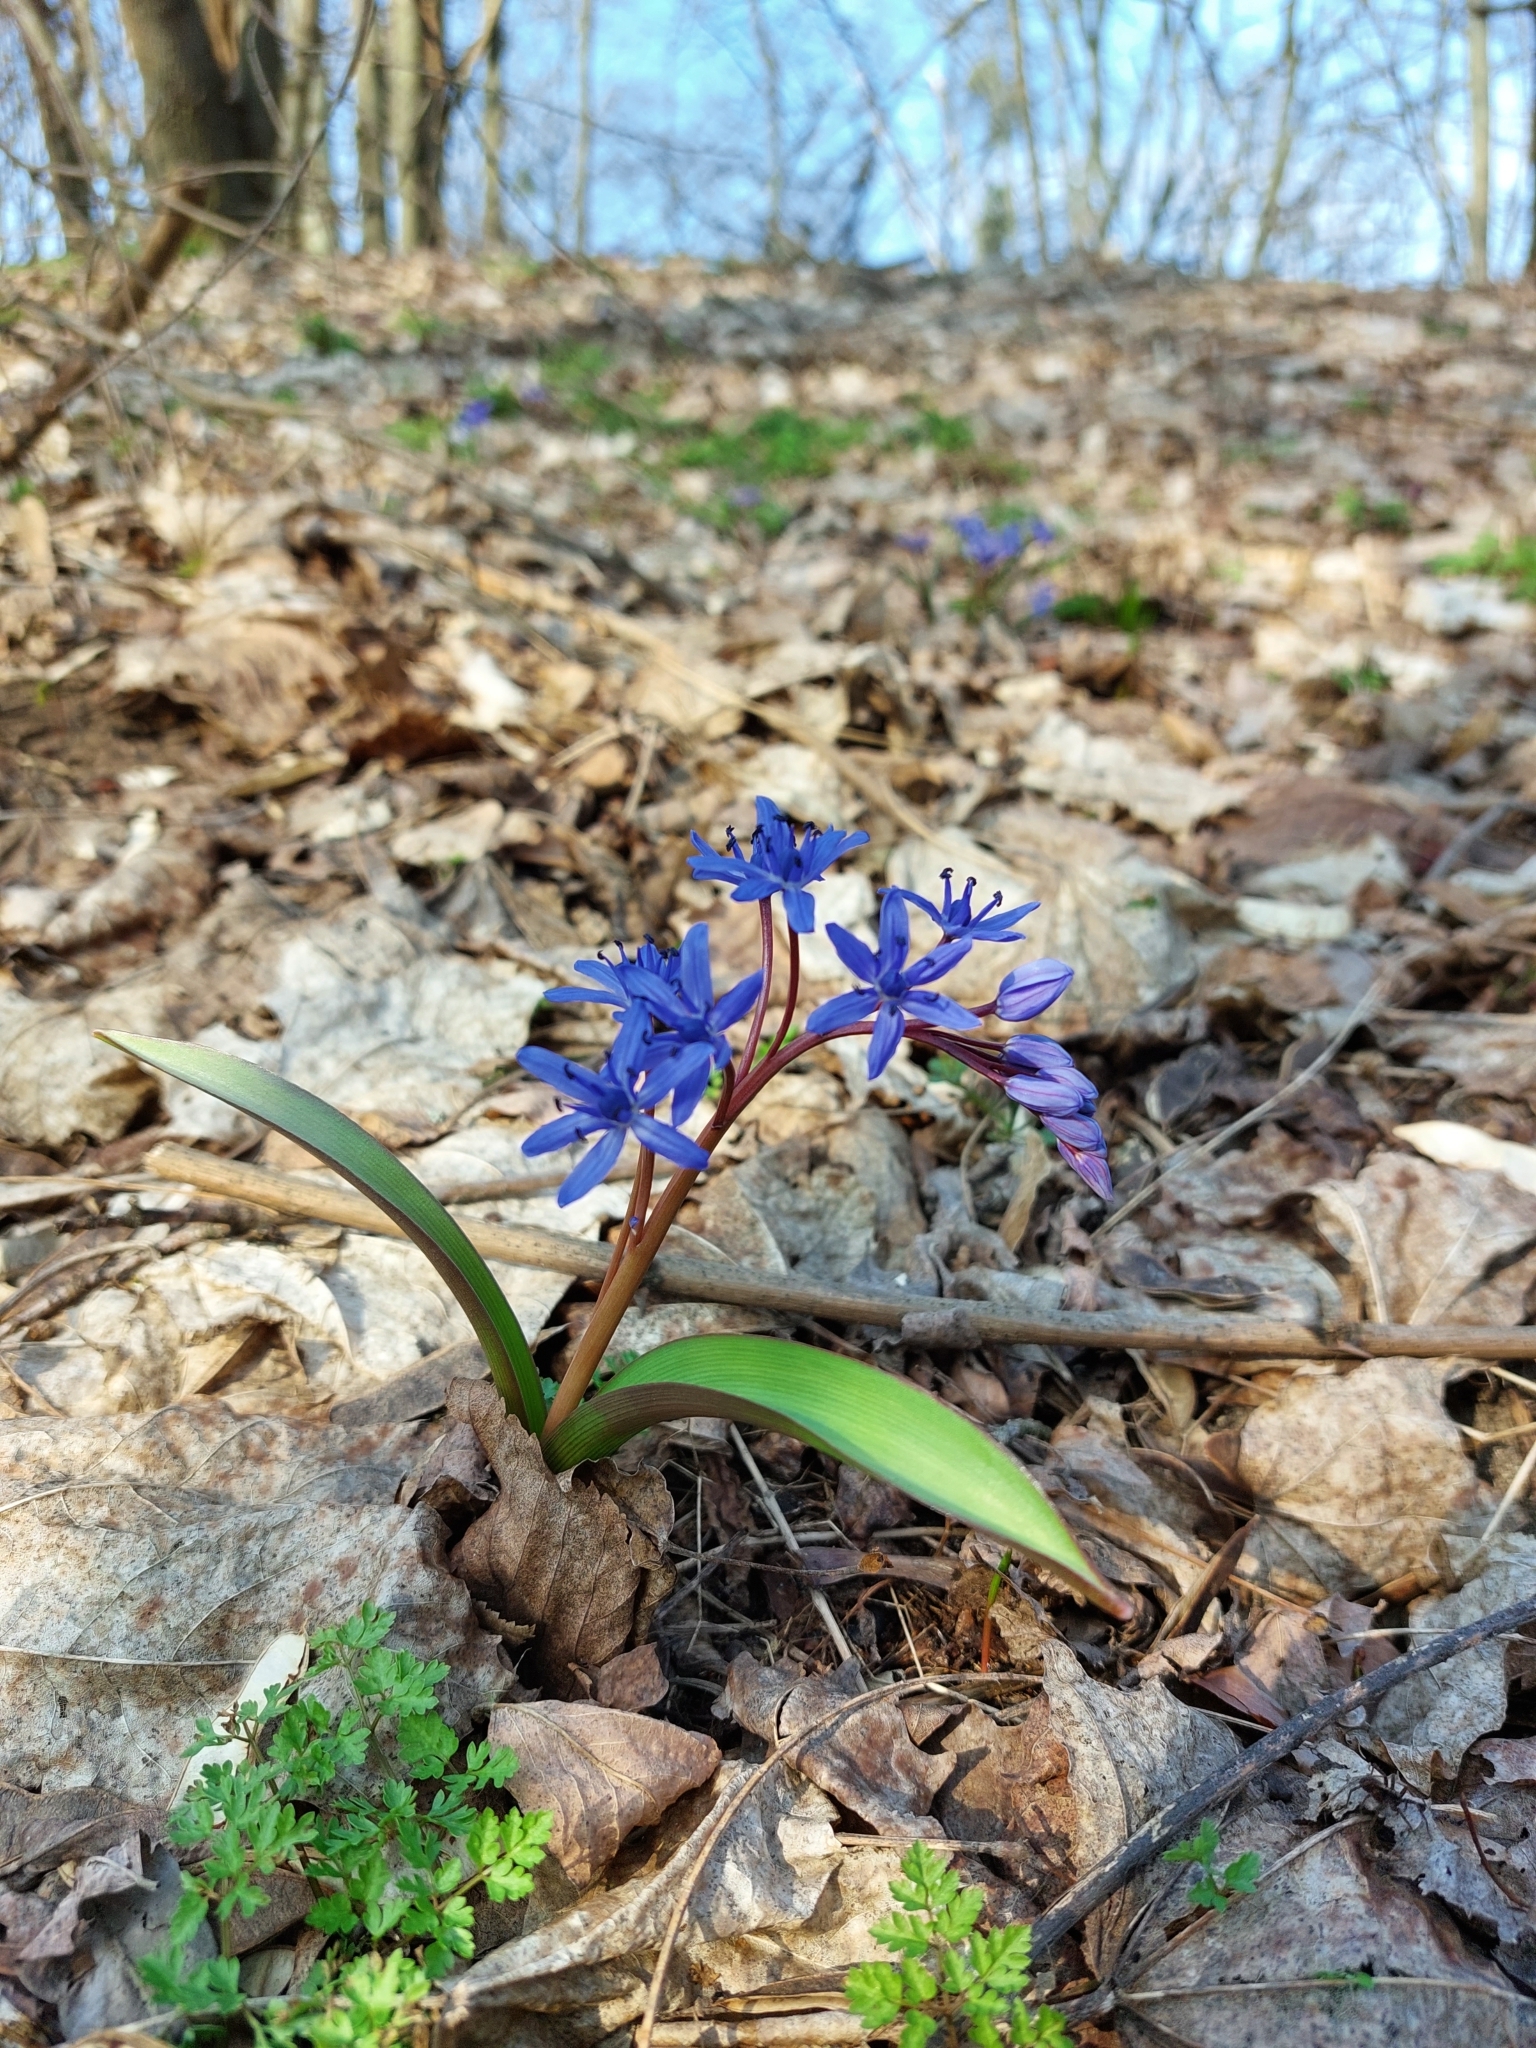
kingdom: Plantae
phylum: Tracheophyta
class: Liliopsida
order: Asparagales
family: Asparagaceae
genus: Scilla
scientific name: Scilla bifolia
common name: Alpine squill
